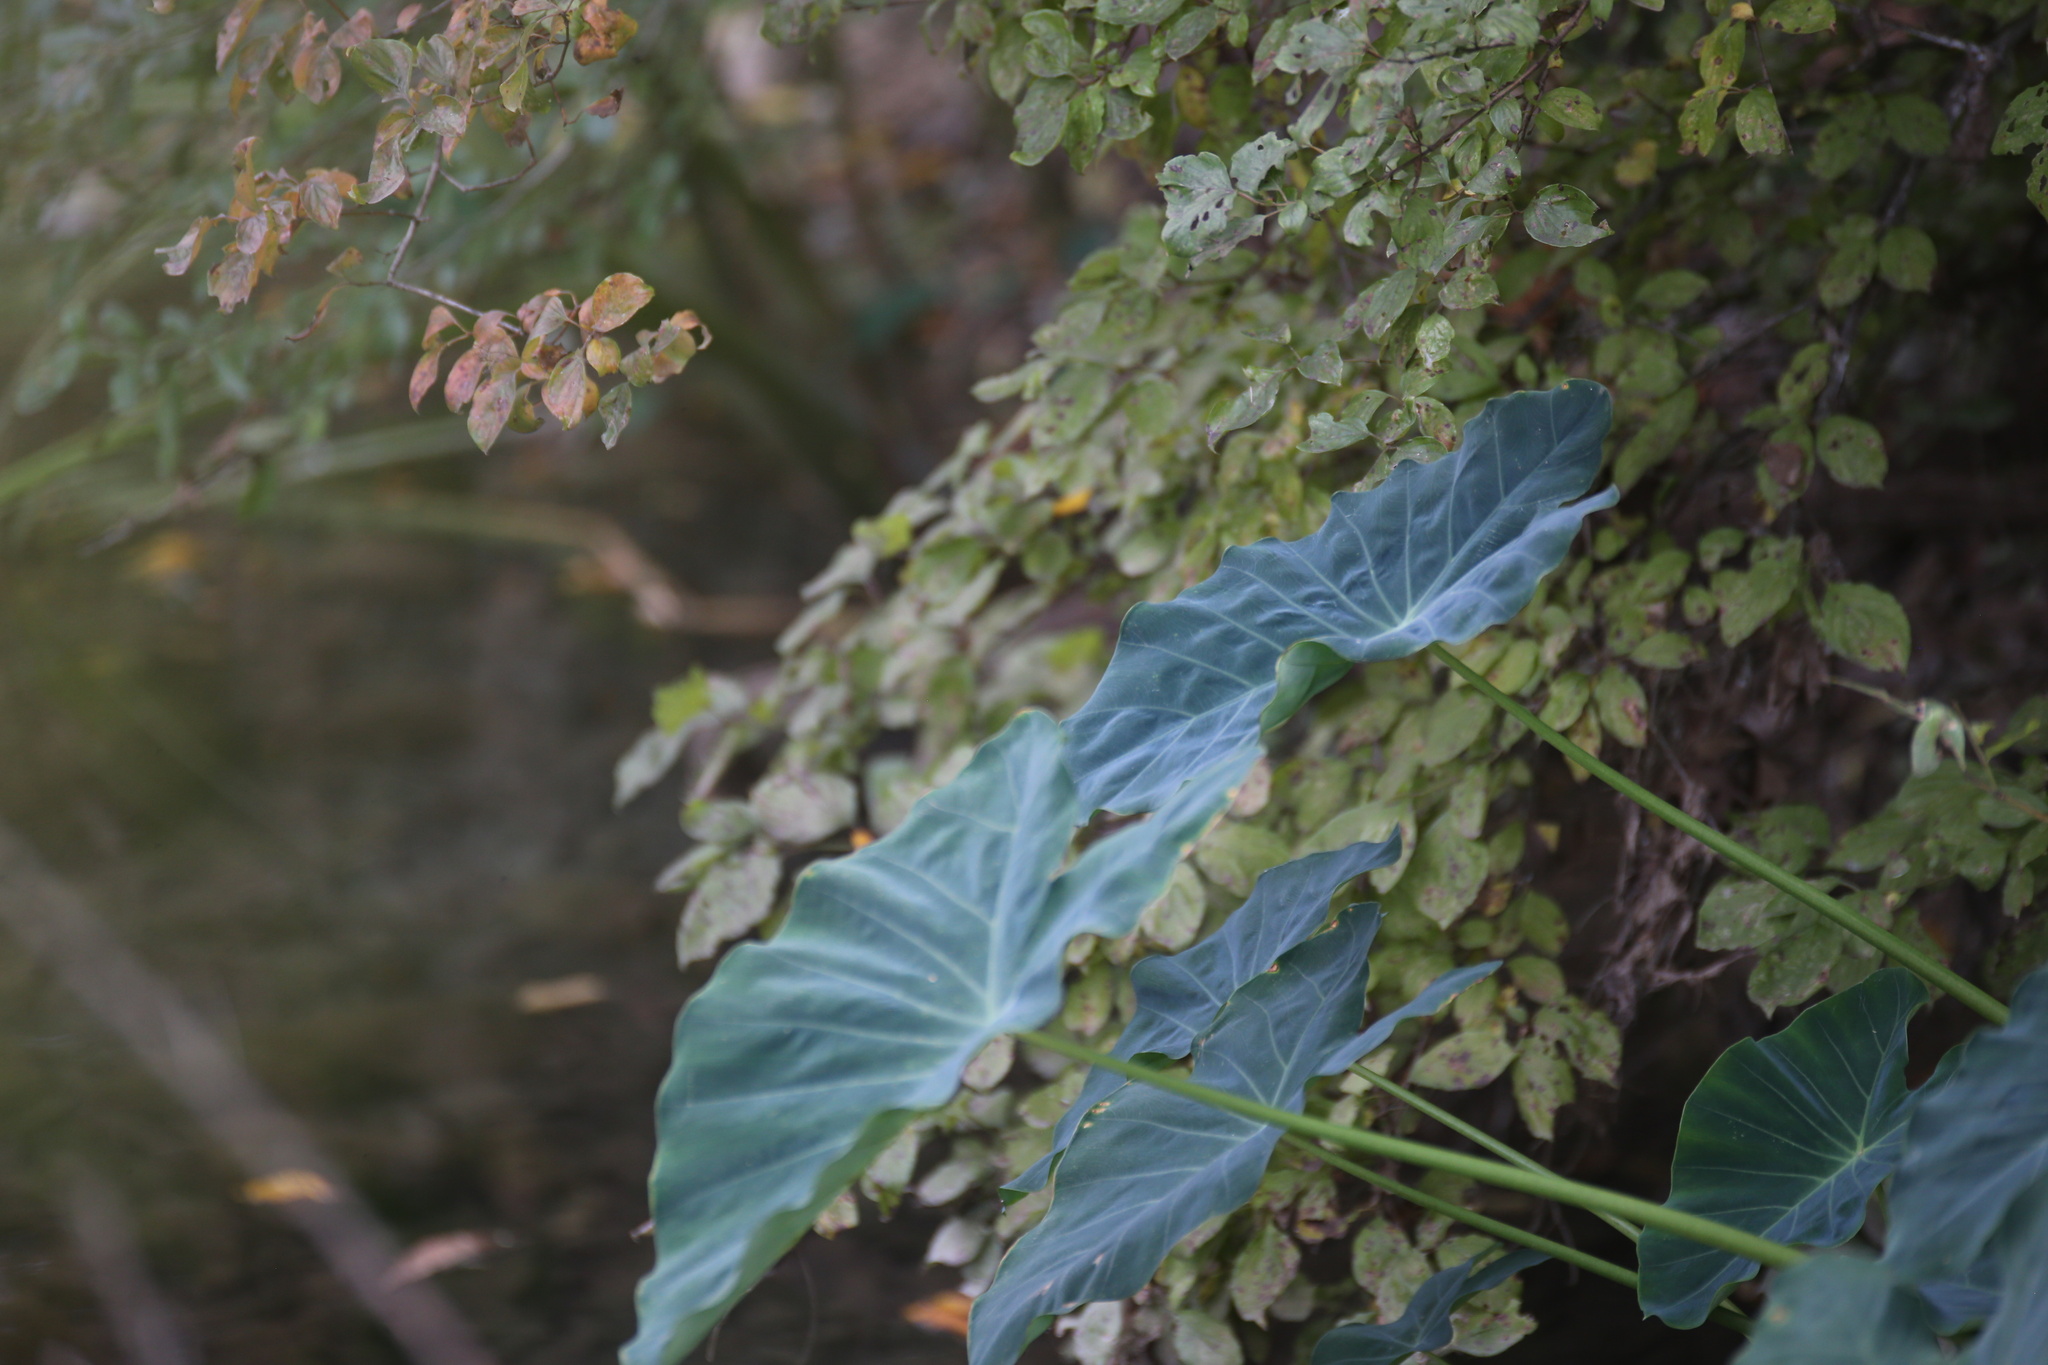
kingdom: Plantae
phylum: Tracheophyta
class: Liliopsida
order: Alismatales
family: Araceae
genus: Colocasia
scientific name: Colocasia esculenta
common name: Taro
